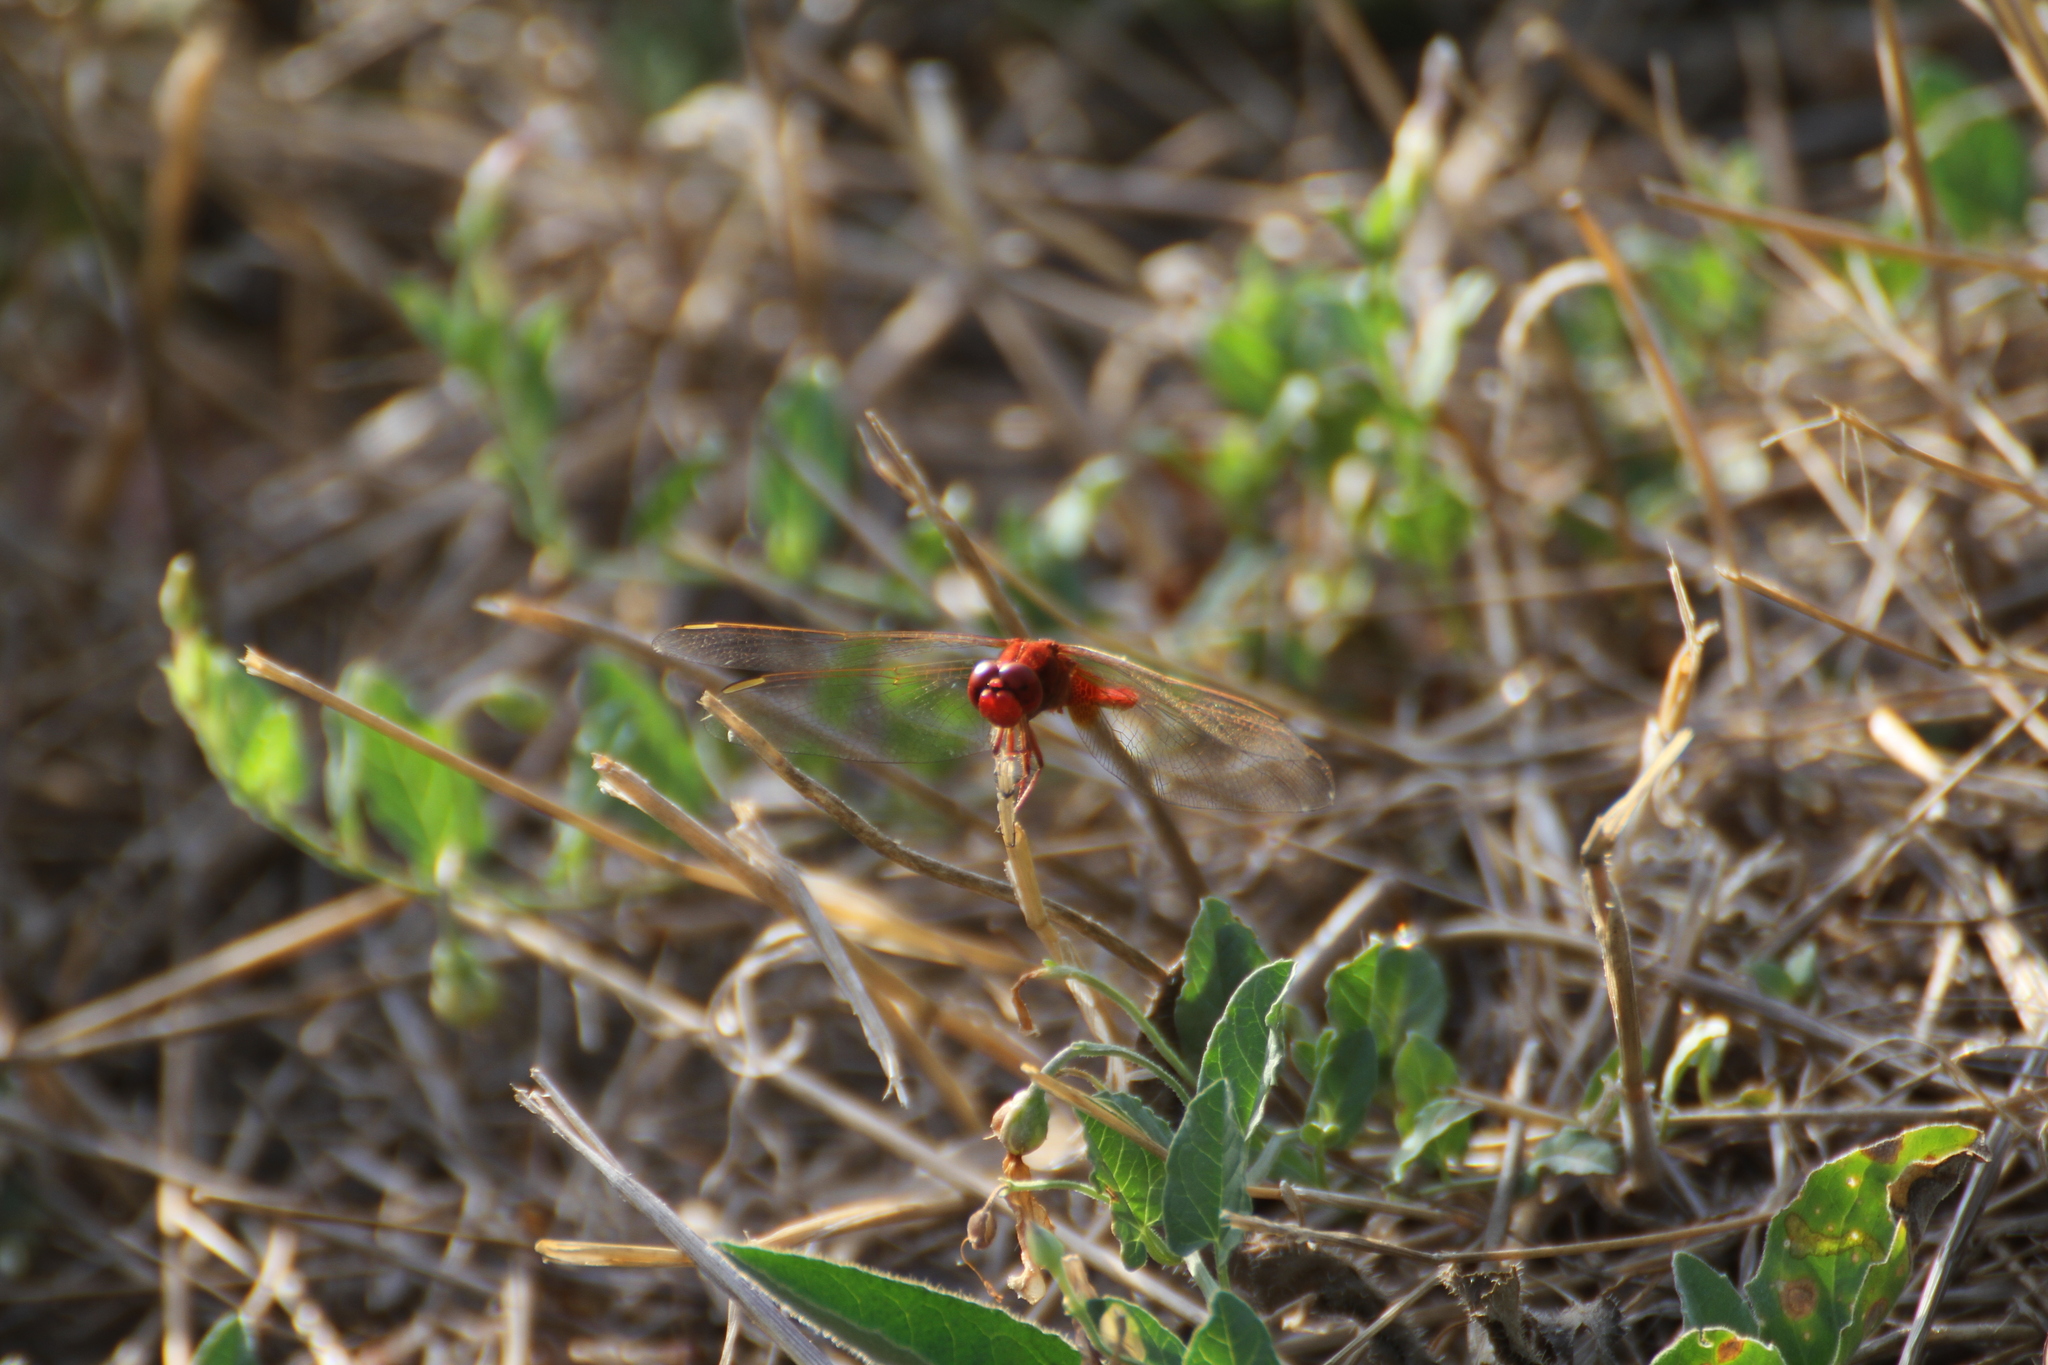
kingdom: Animalia
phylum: Arthropoda
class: Insecta
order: Odonata
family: Libellulidae
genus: Crocothemis
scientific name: Crocothemis erythraea
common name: Scarlet dragonfly
